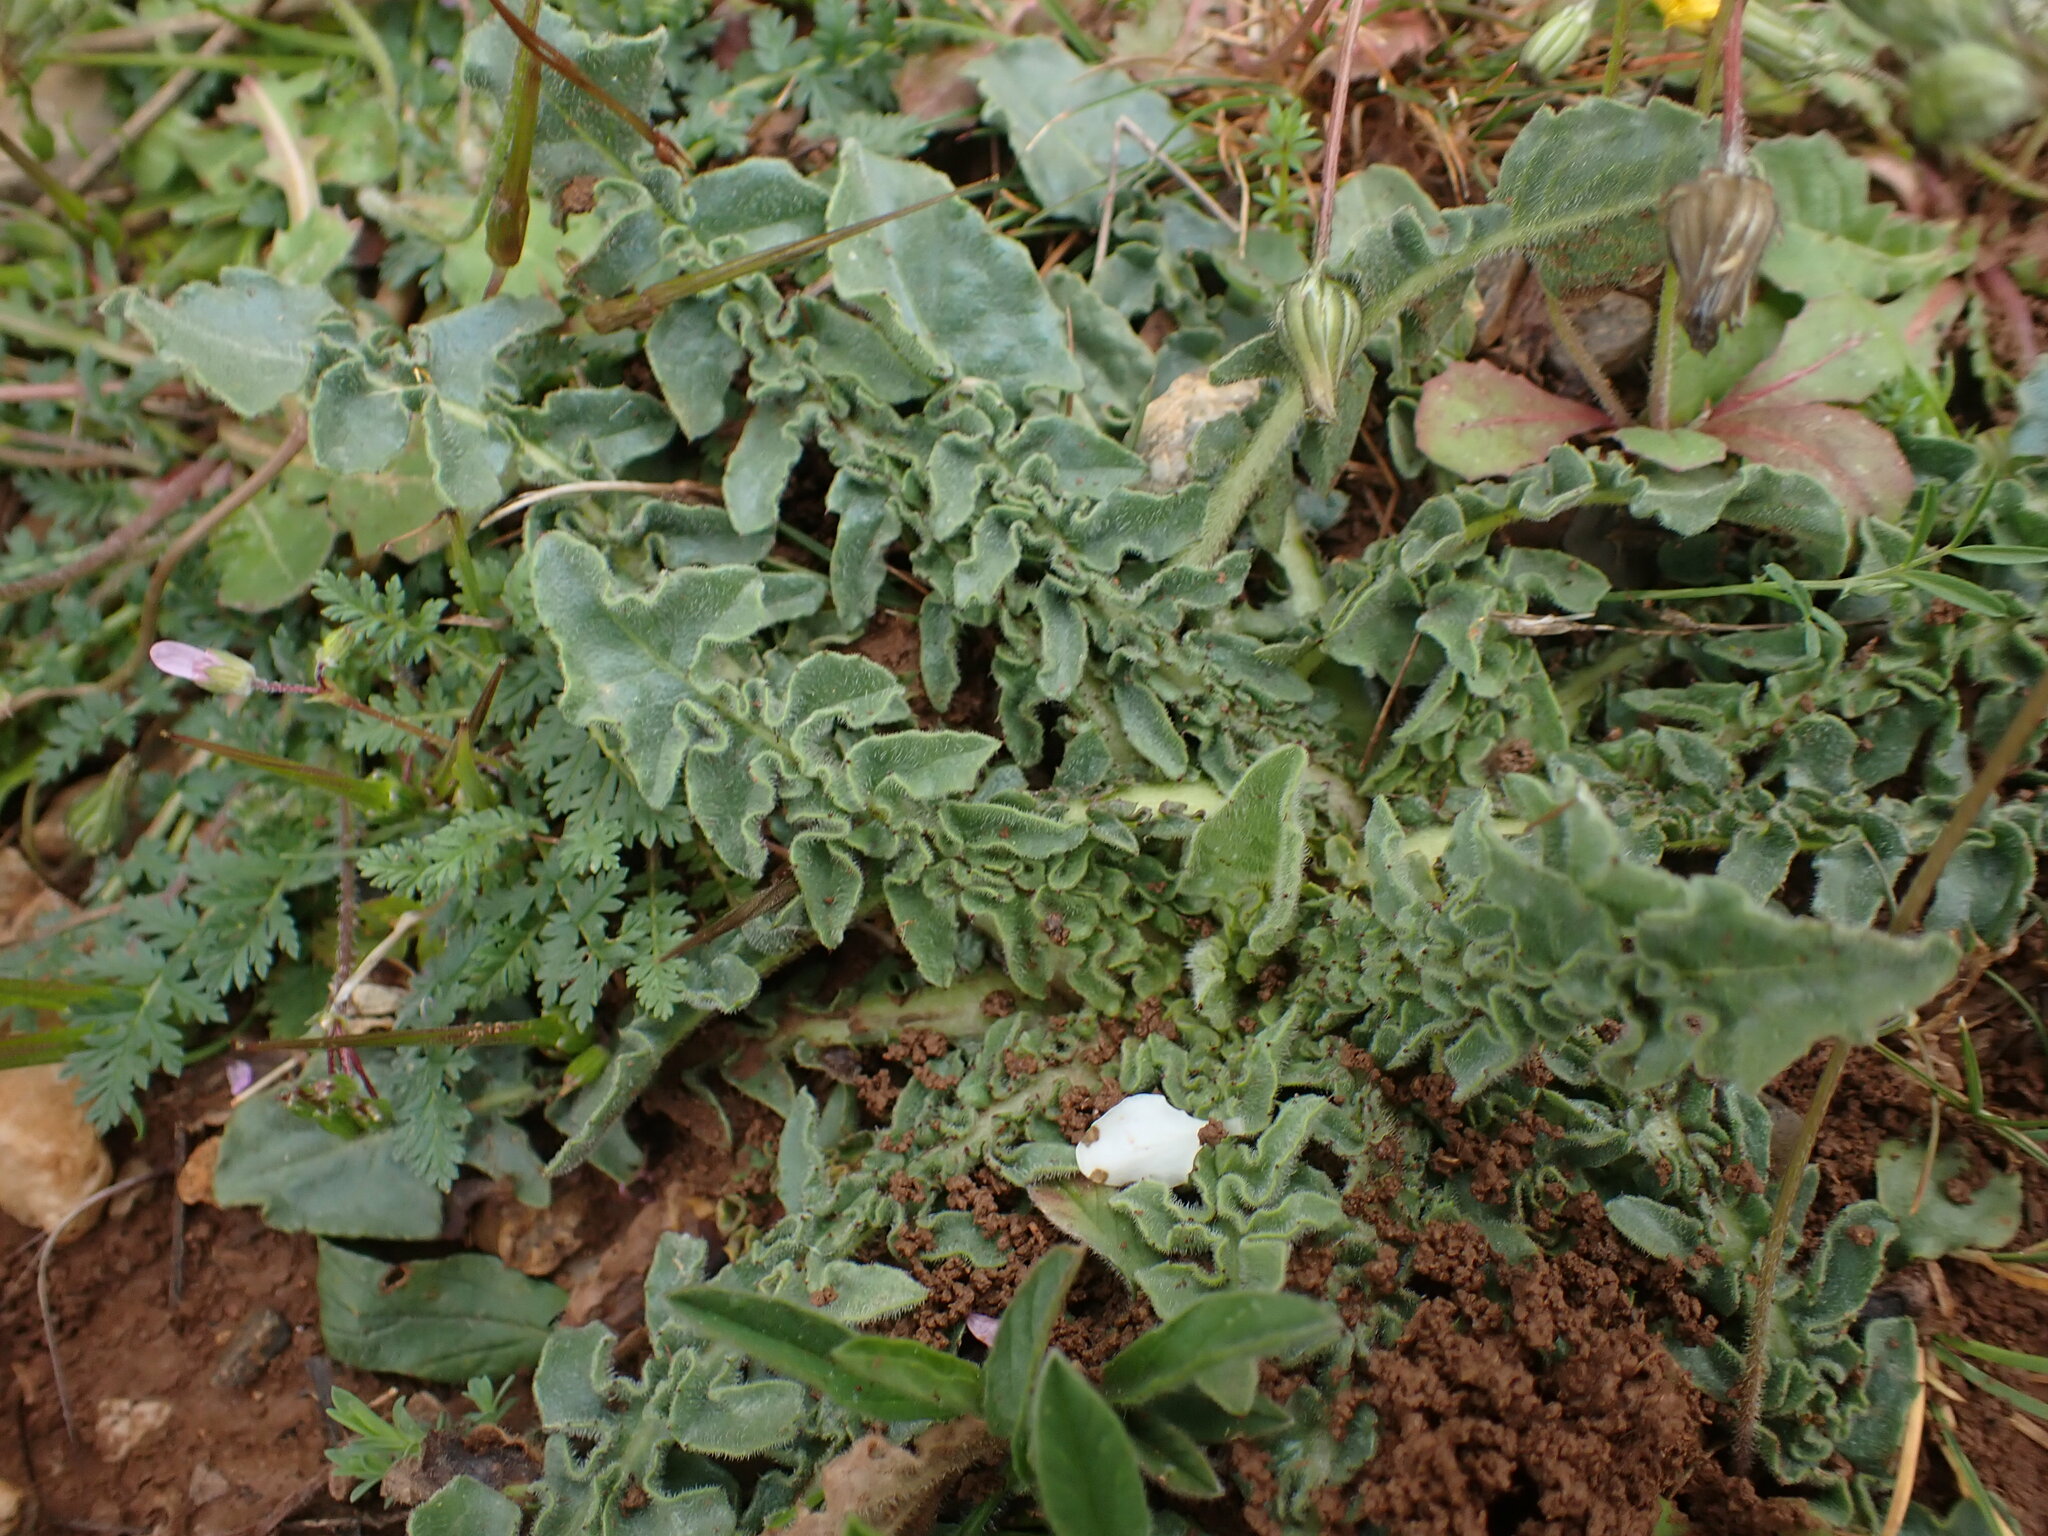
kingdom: Plantae
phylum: Tracheophyta
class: Magnoliopsida
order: Asterales
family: Asteraceae
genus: Urospermum
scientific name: Urospermum dalechampii
